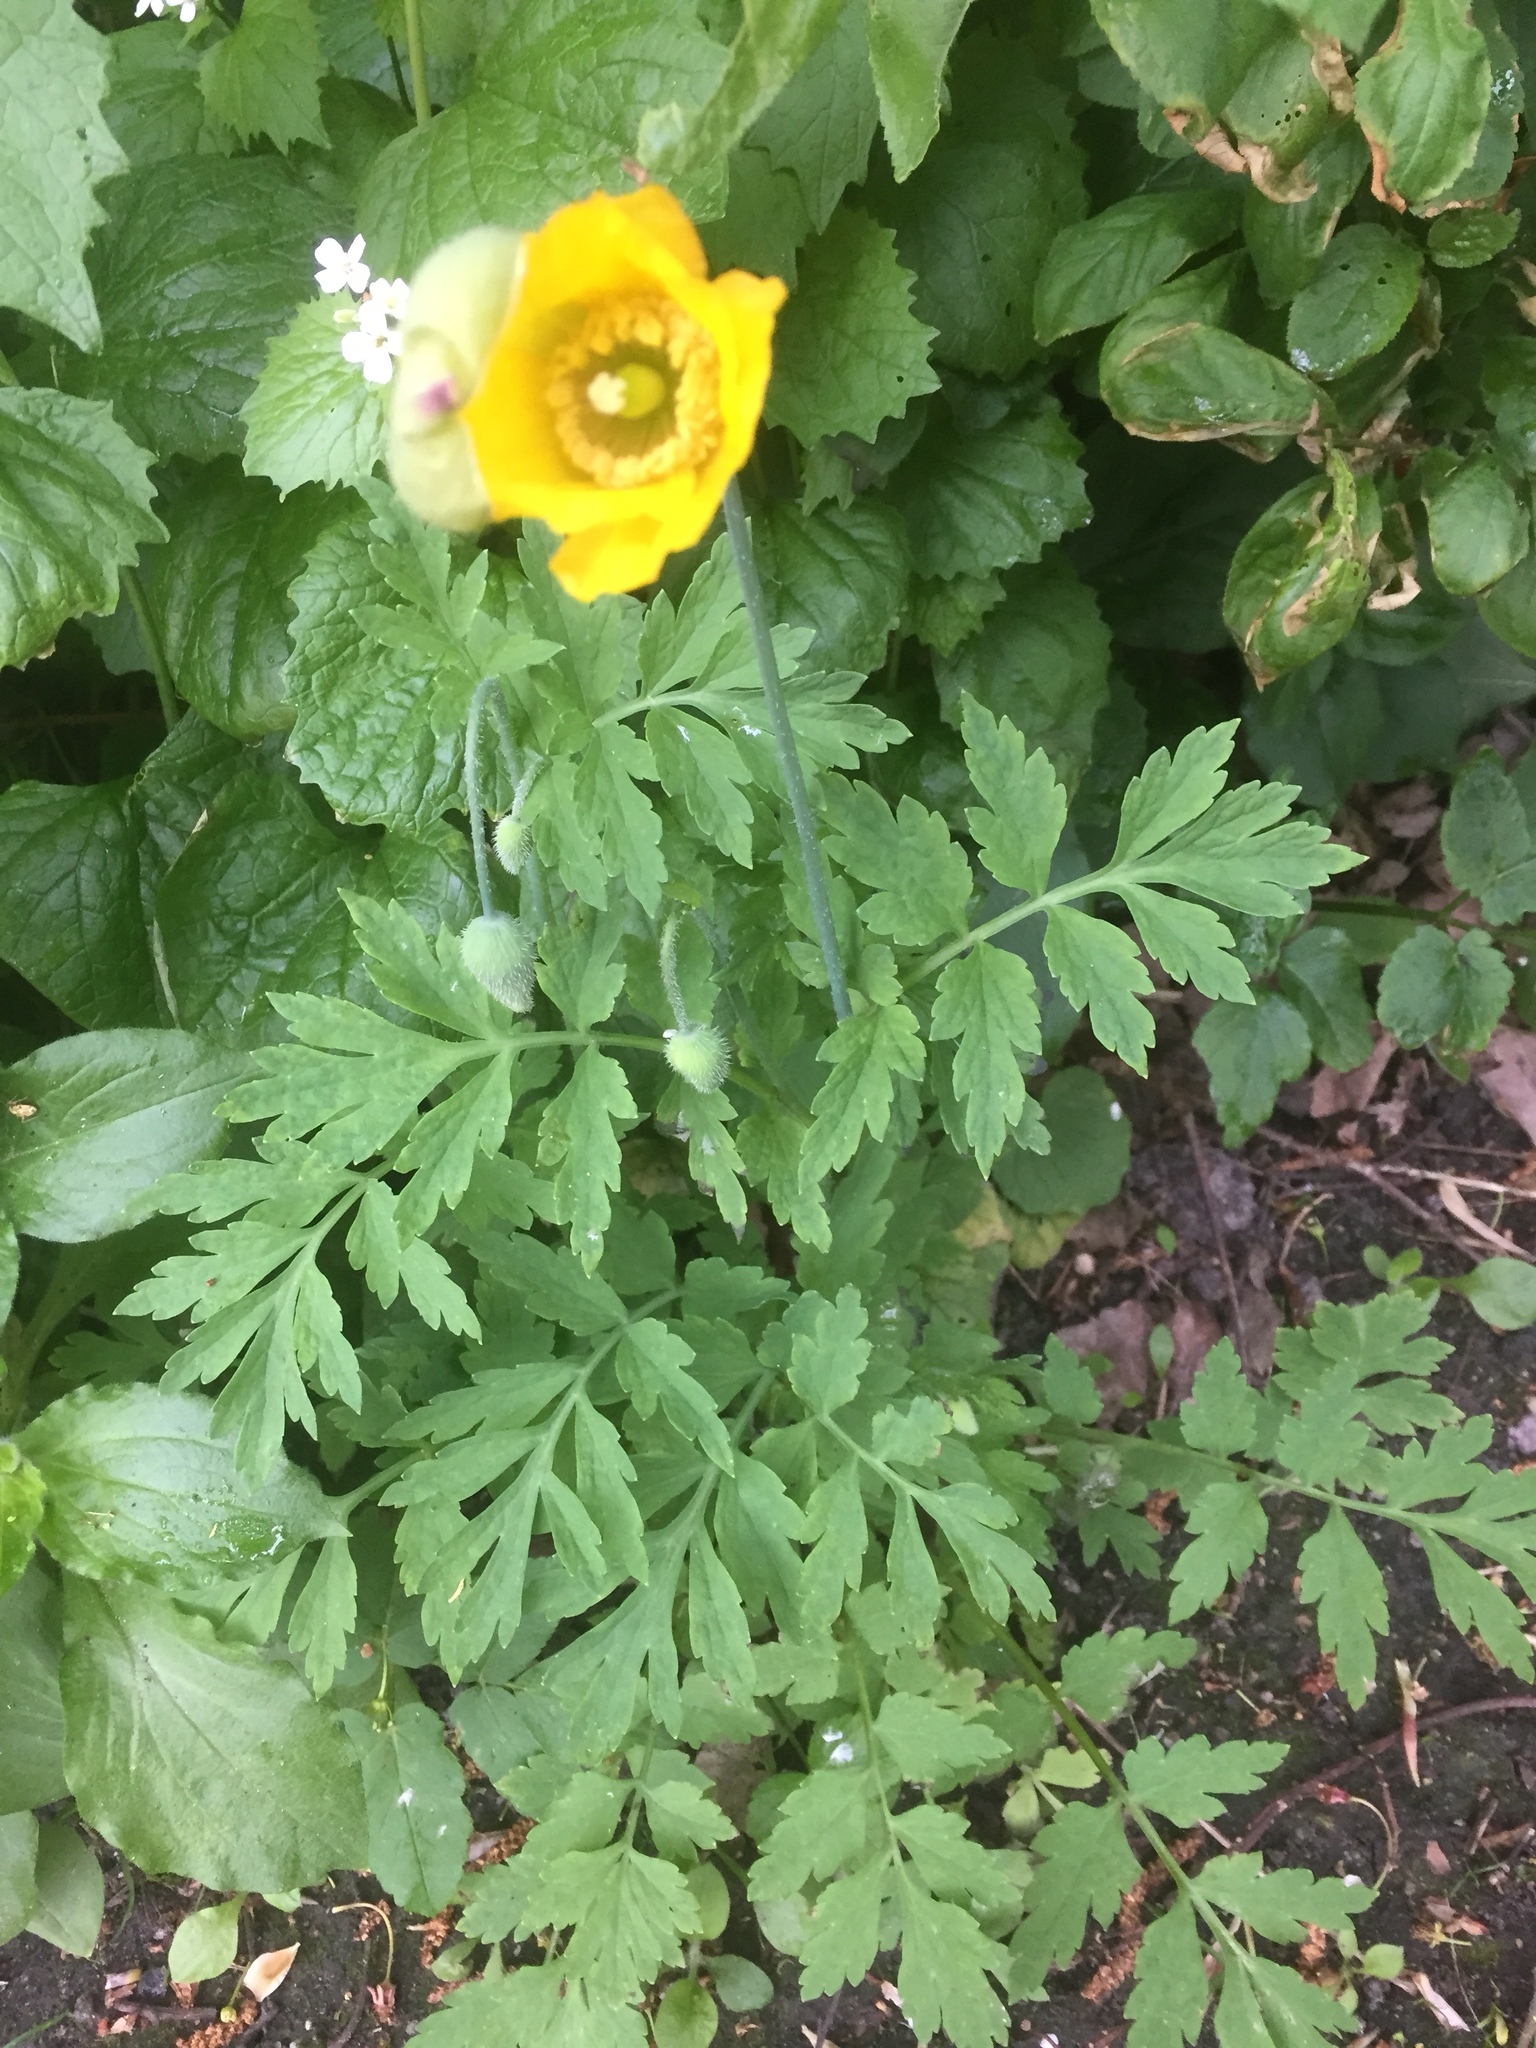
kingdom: Plantae
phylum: Tracheophyta
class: Magnoliopsida
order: Ranunculales
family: Papaveraceae
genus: Papaver
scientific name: Papaver cambricum
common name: Poppy
